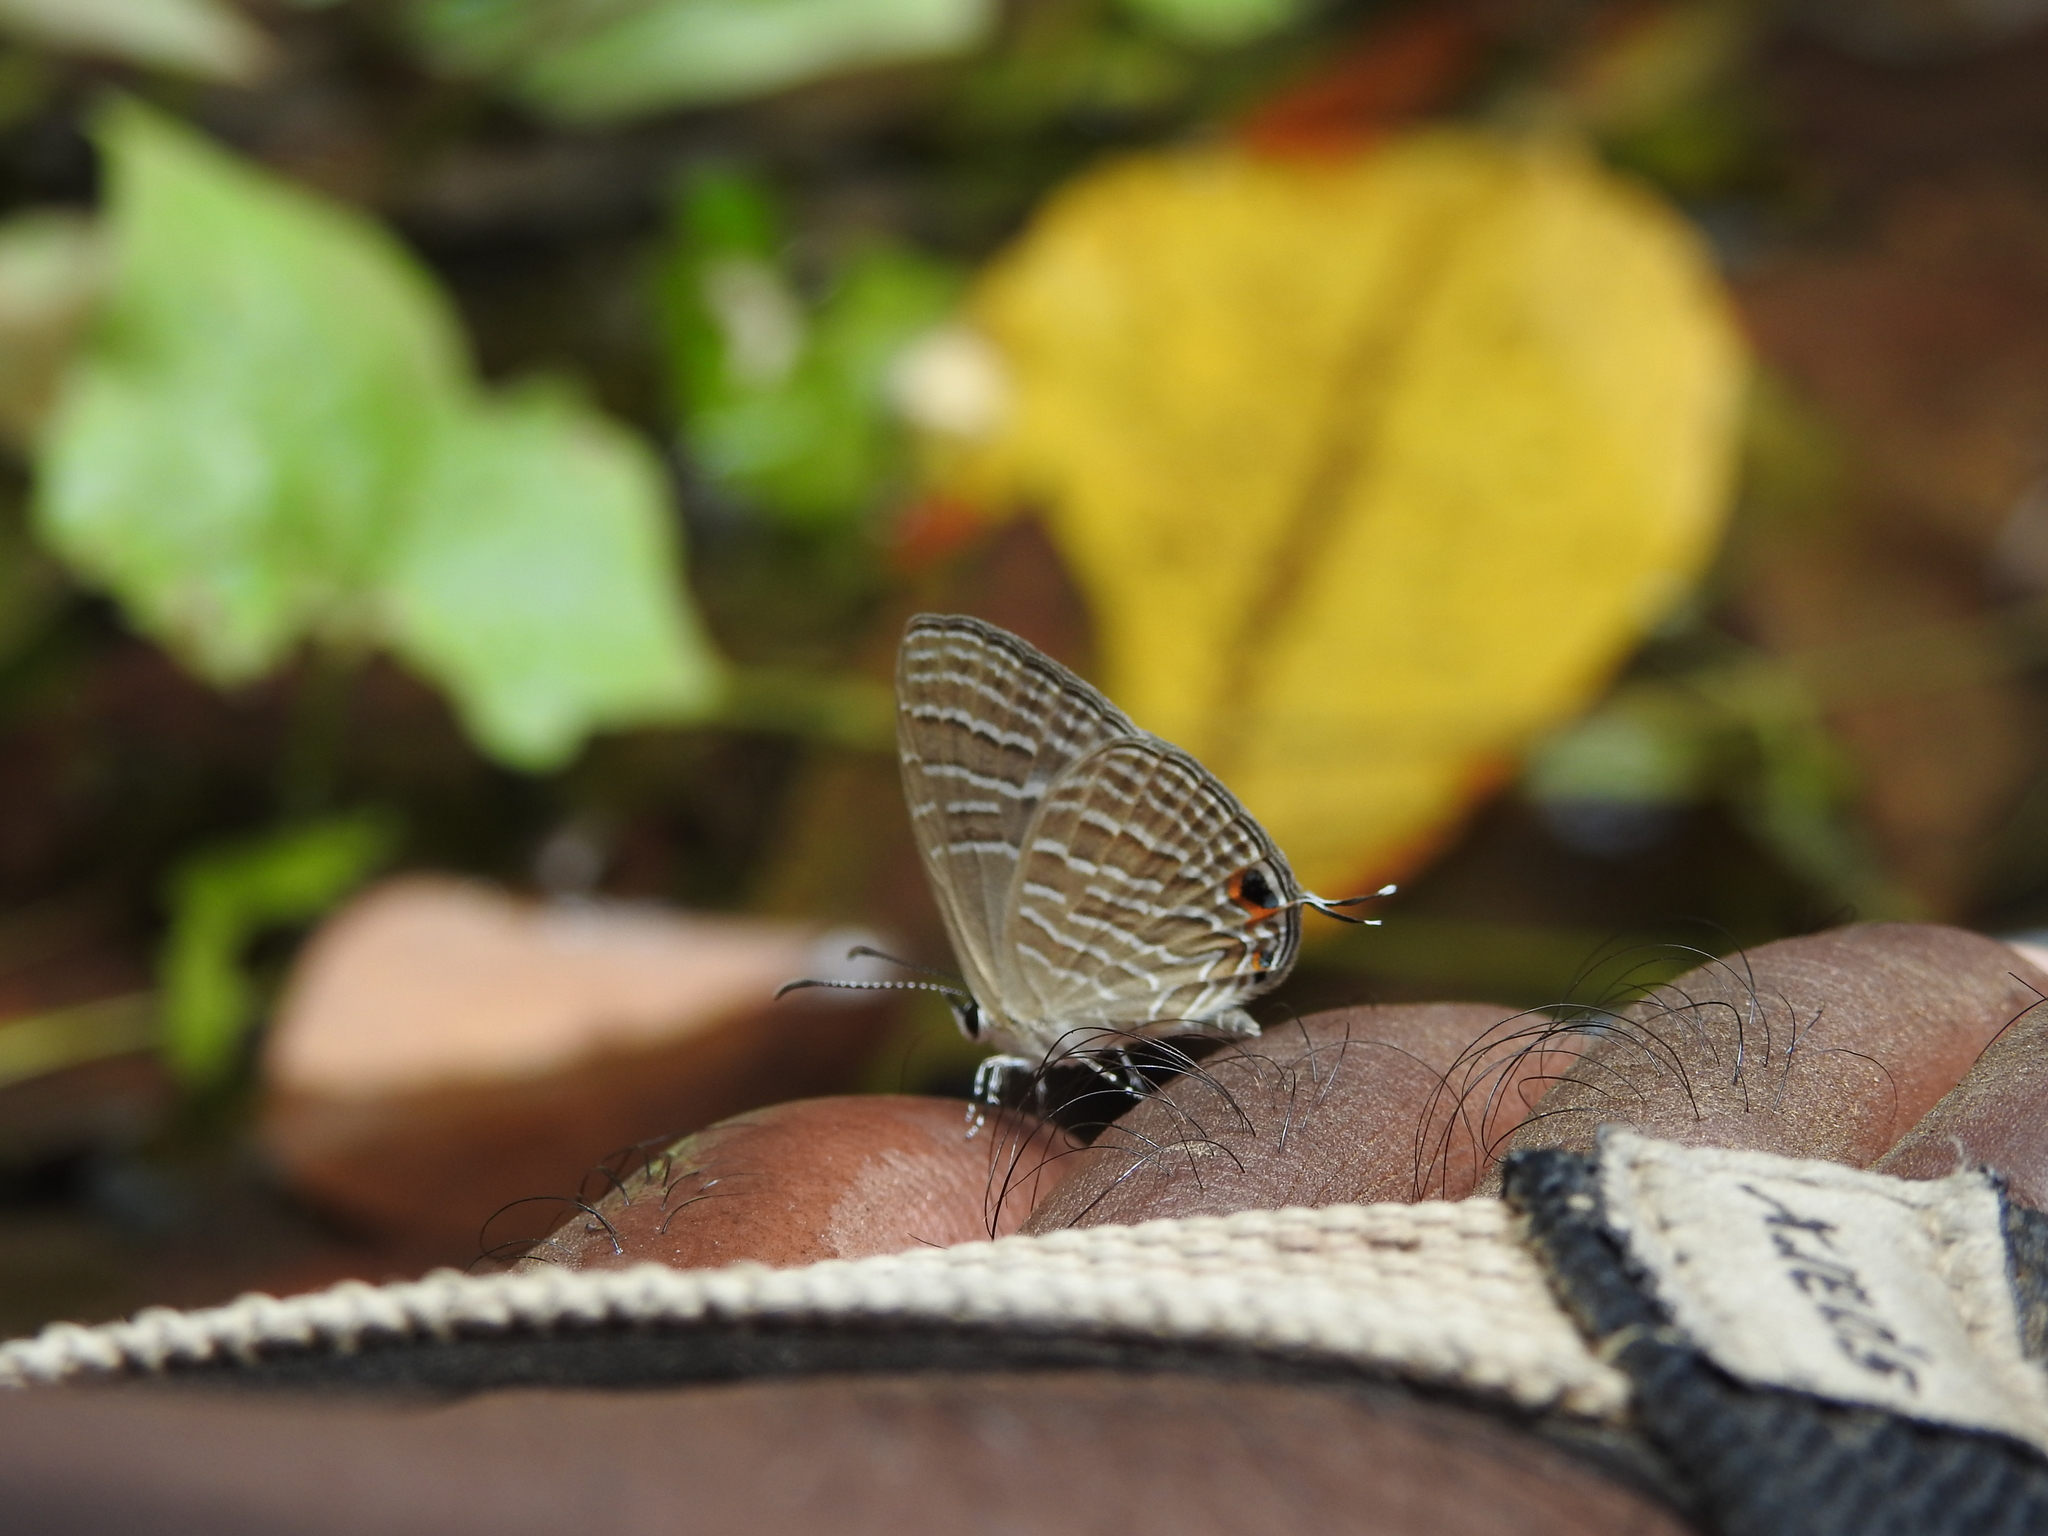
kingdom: Animalia
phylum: Arthropoda
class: Insecta
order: Lepidoptera
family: Lycaenidae
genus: Jamides
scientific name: Jamides celeno
